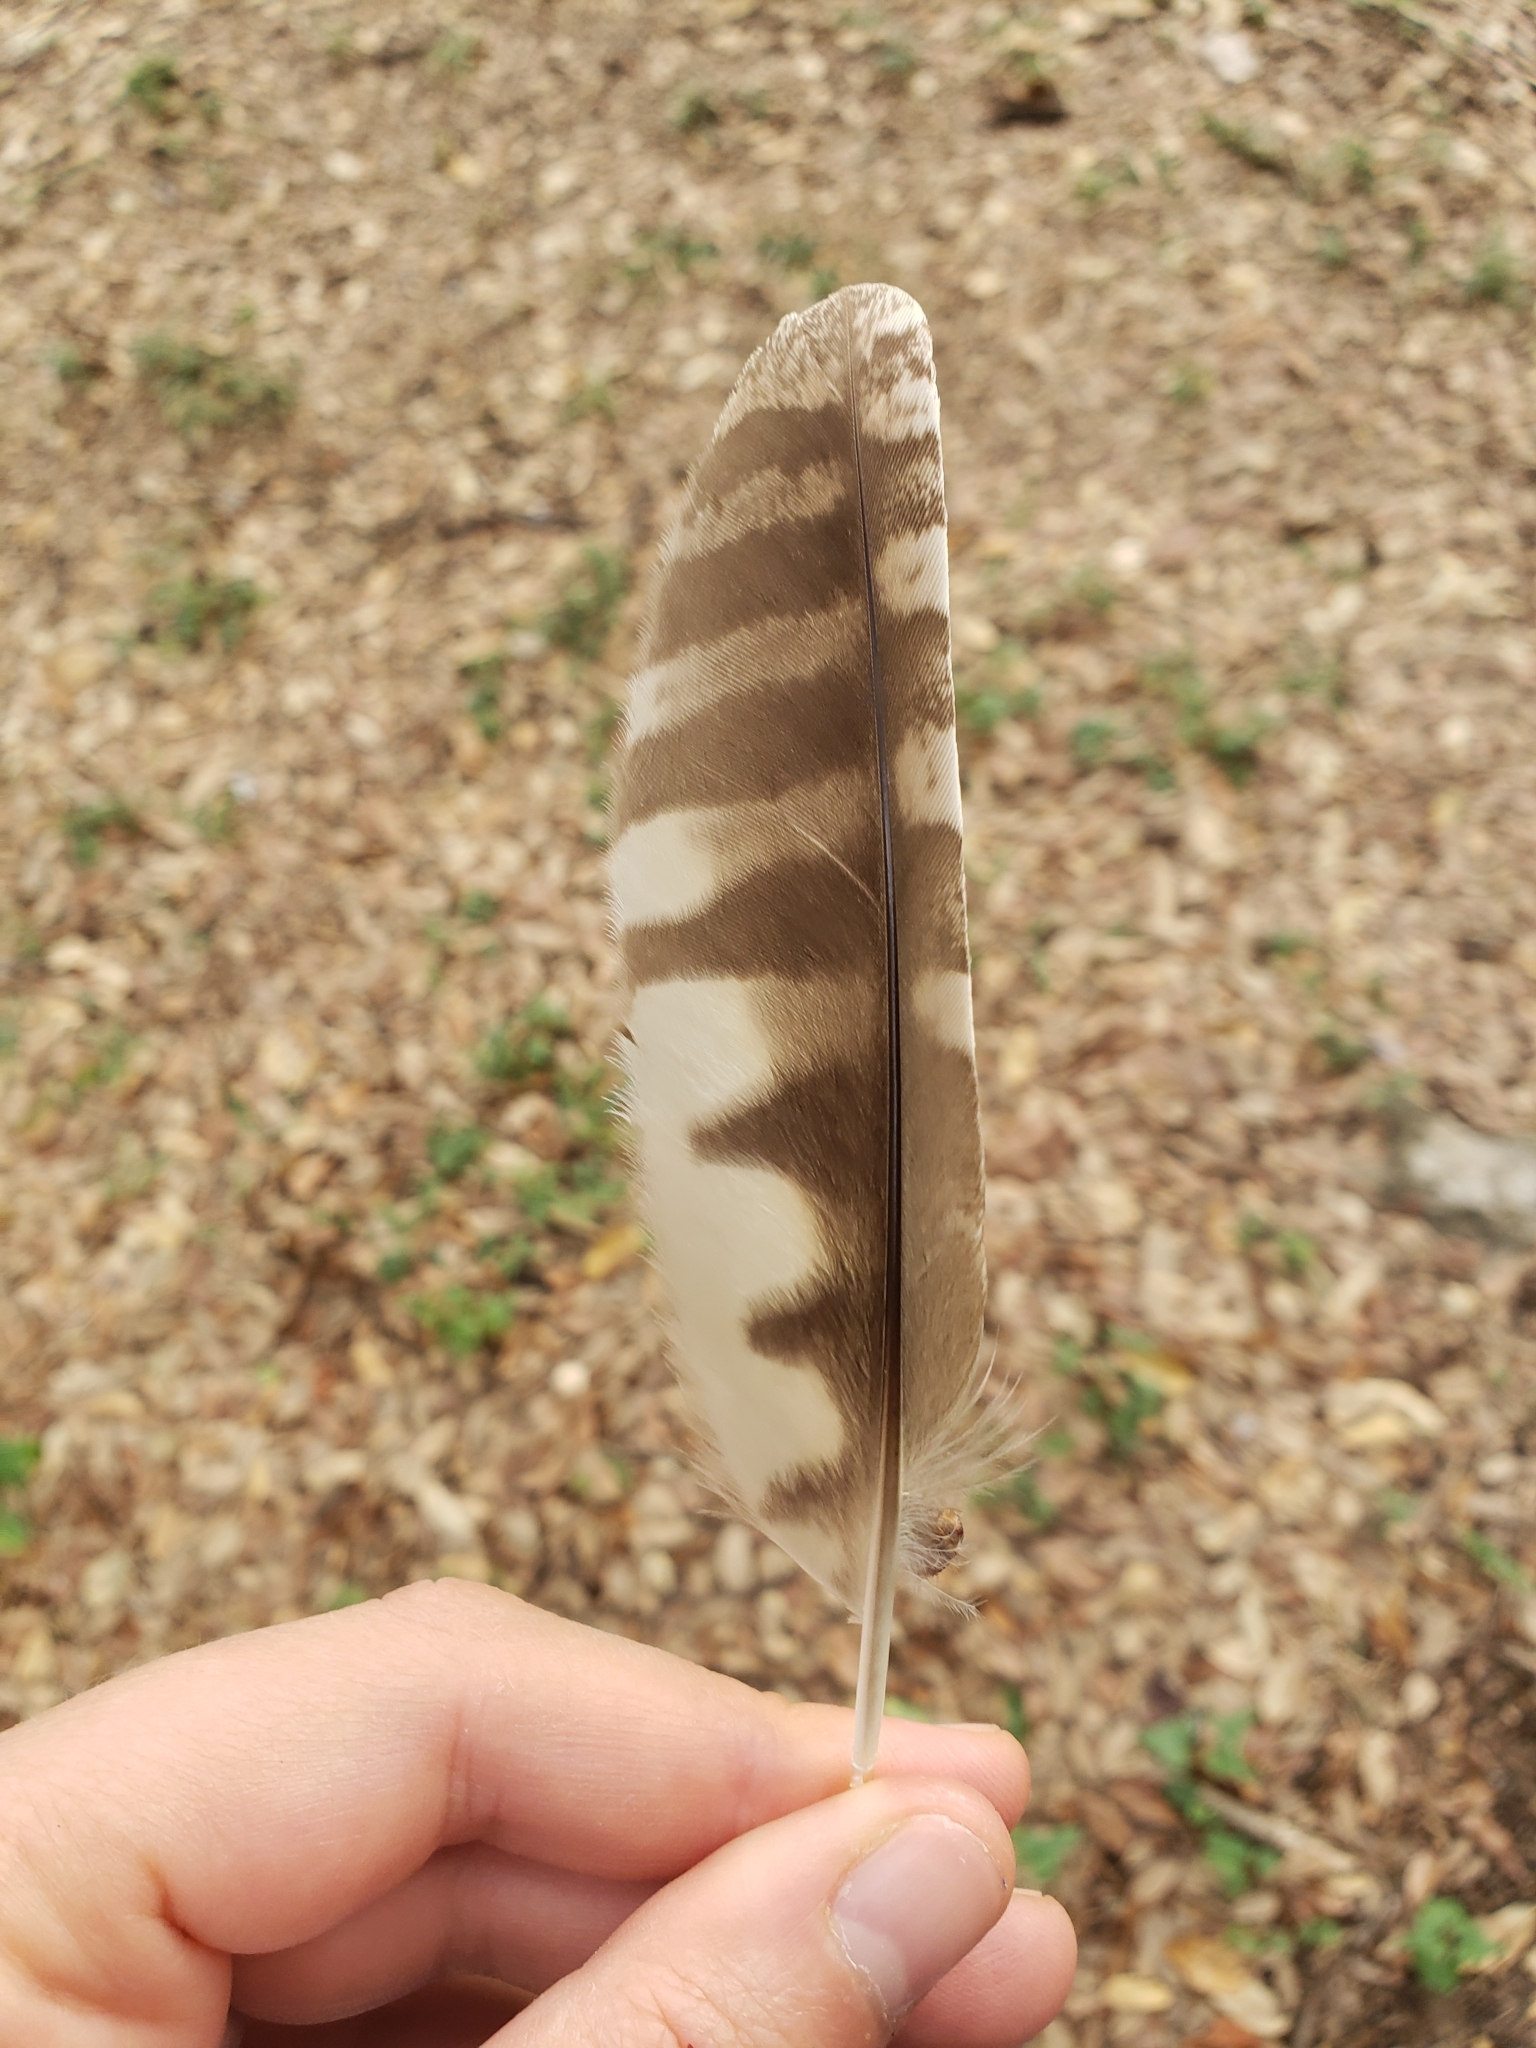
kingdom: Animalia
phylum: Chordata
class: Aves
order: Strigiformes
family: Strigidae
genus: Megascops
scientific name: Megascops asio
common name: Eastern screech-owl
